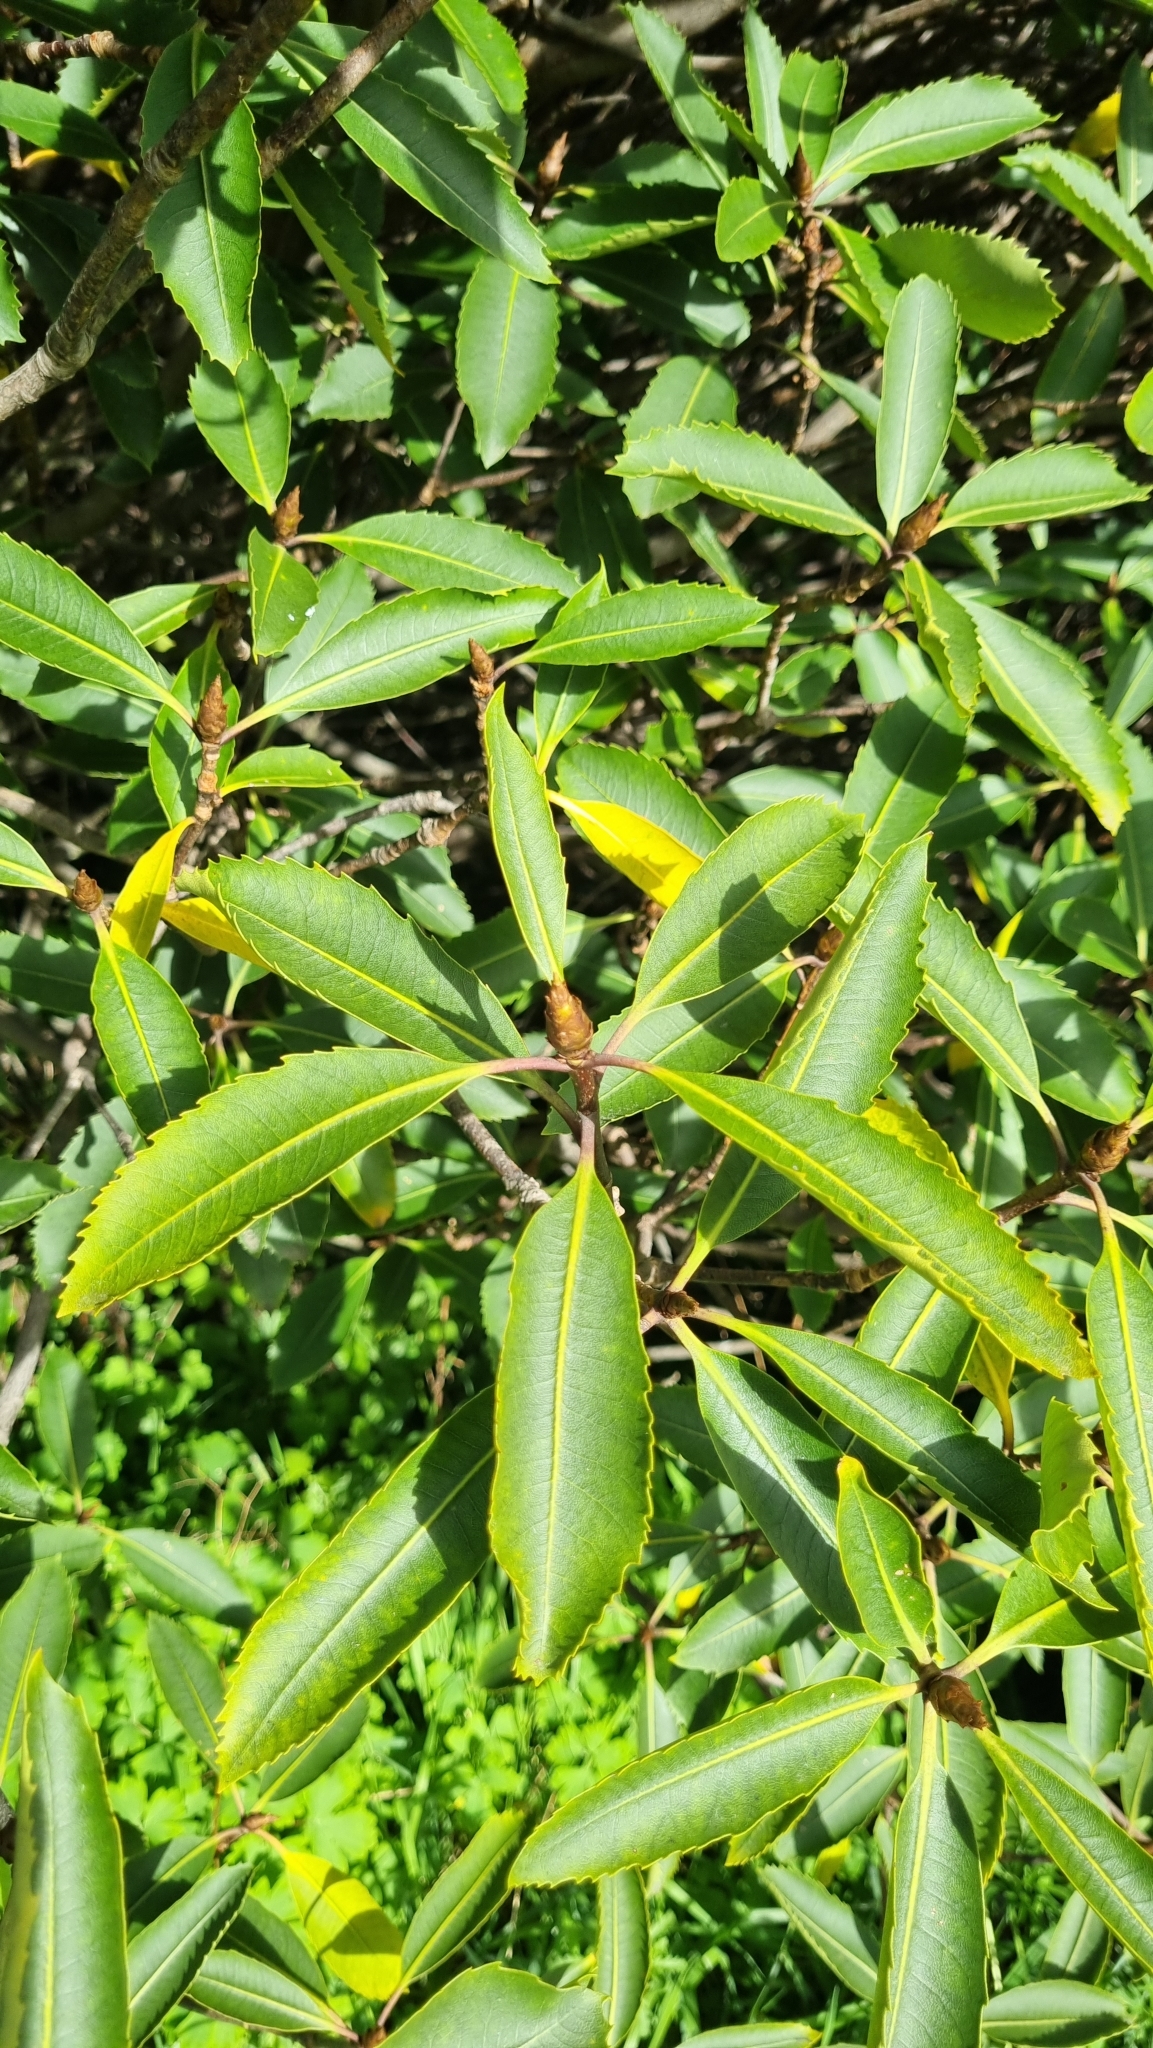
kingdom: Plantae
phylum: Tracheophyta
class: Magnoliopsida
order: Apiales
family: Pittosporaceae
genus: Pittosporum
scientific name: Pittosporum dallii
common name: Dalls pittosporum
